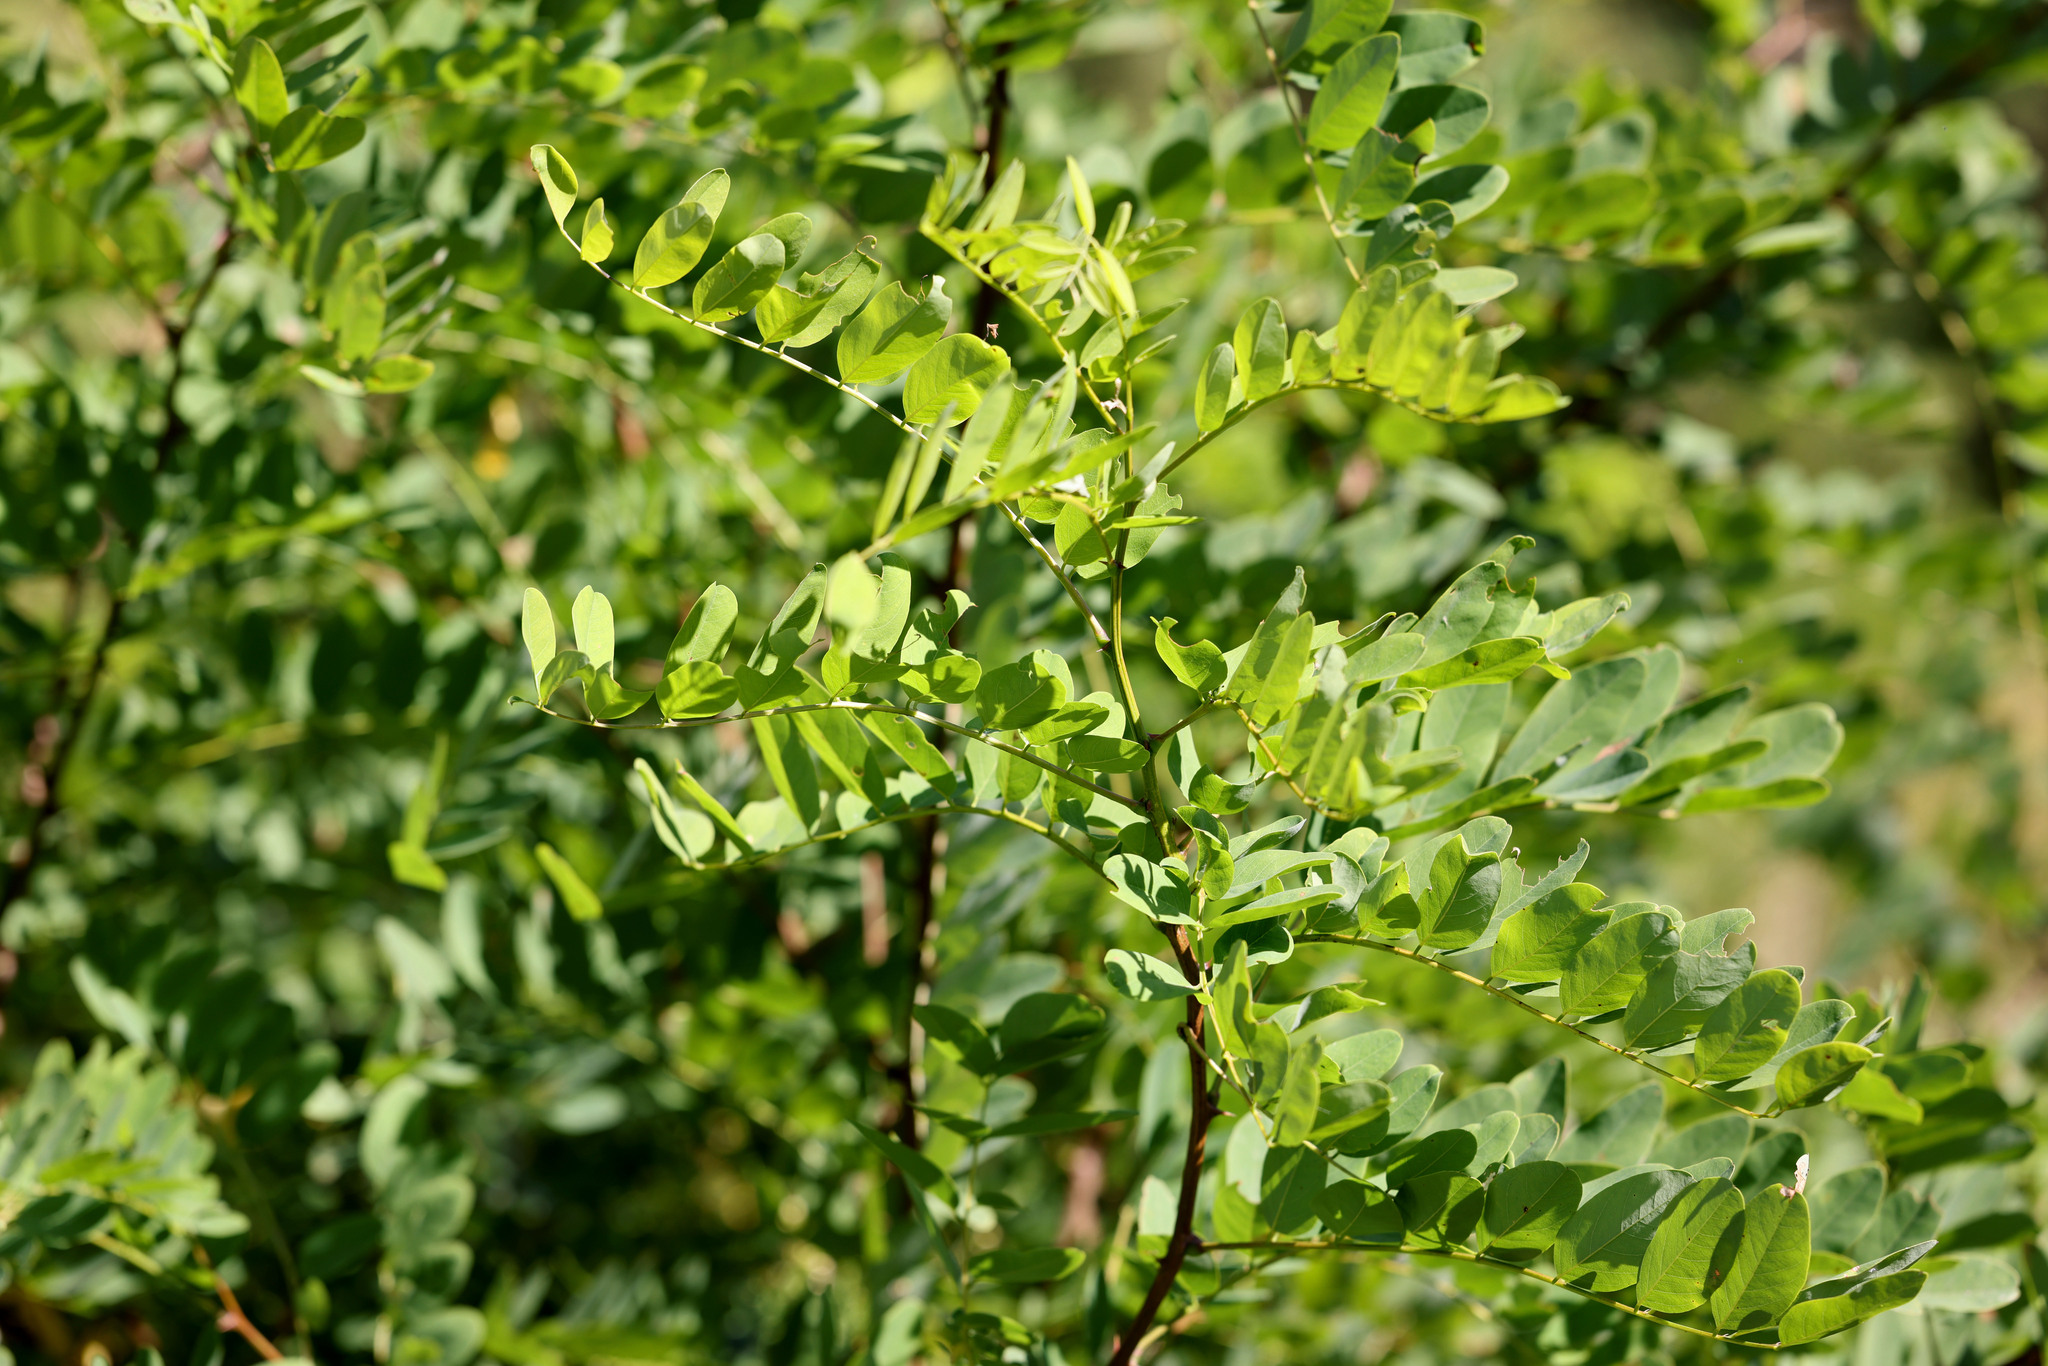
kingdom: Plantae
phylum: Tracheophyta
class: Magnoliopsida
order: Fabales
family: Fabaceae
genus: Robinia
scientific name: Robinia pseudoacacia
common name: Black locust
